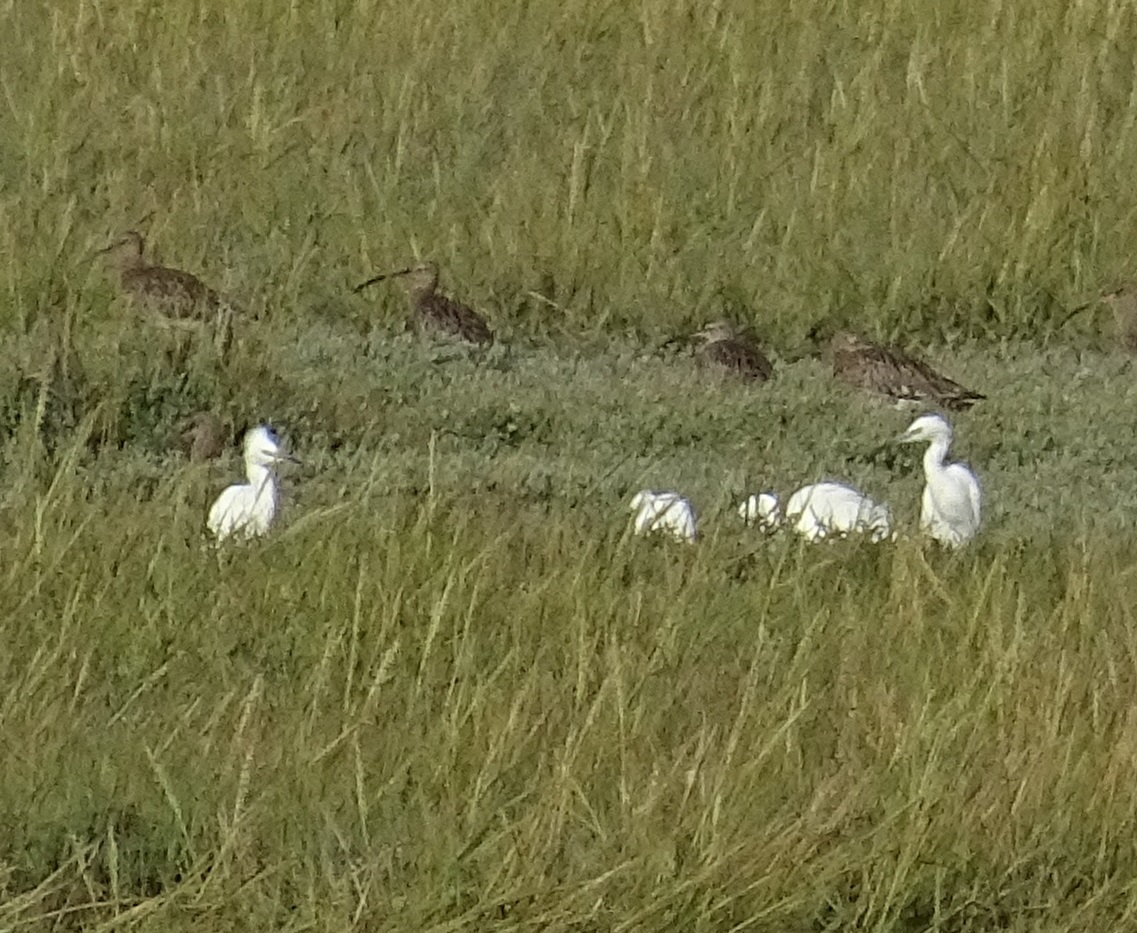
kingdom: Animalia
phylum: Chordata
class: Aves
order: Pelecaniformes
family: Ardeidae
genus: Egretta
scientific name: Egretta garzetta
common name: Little egret
